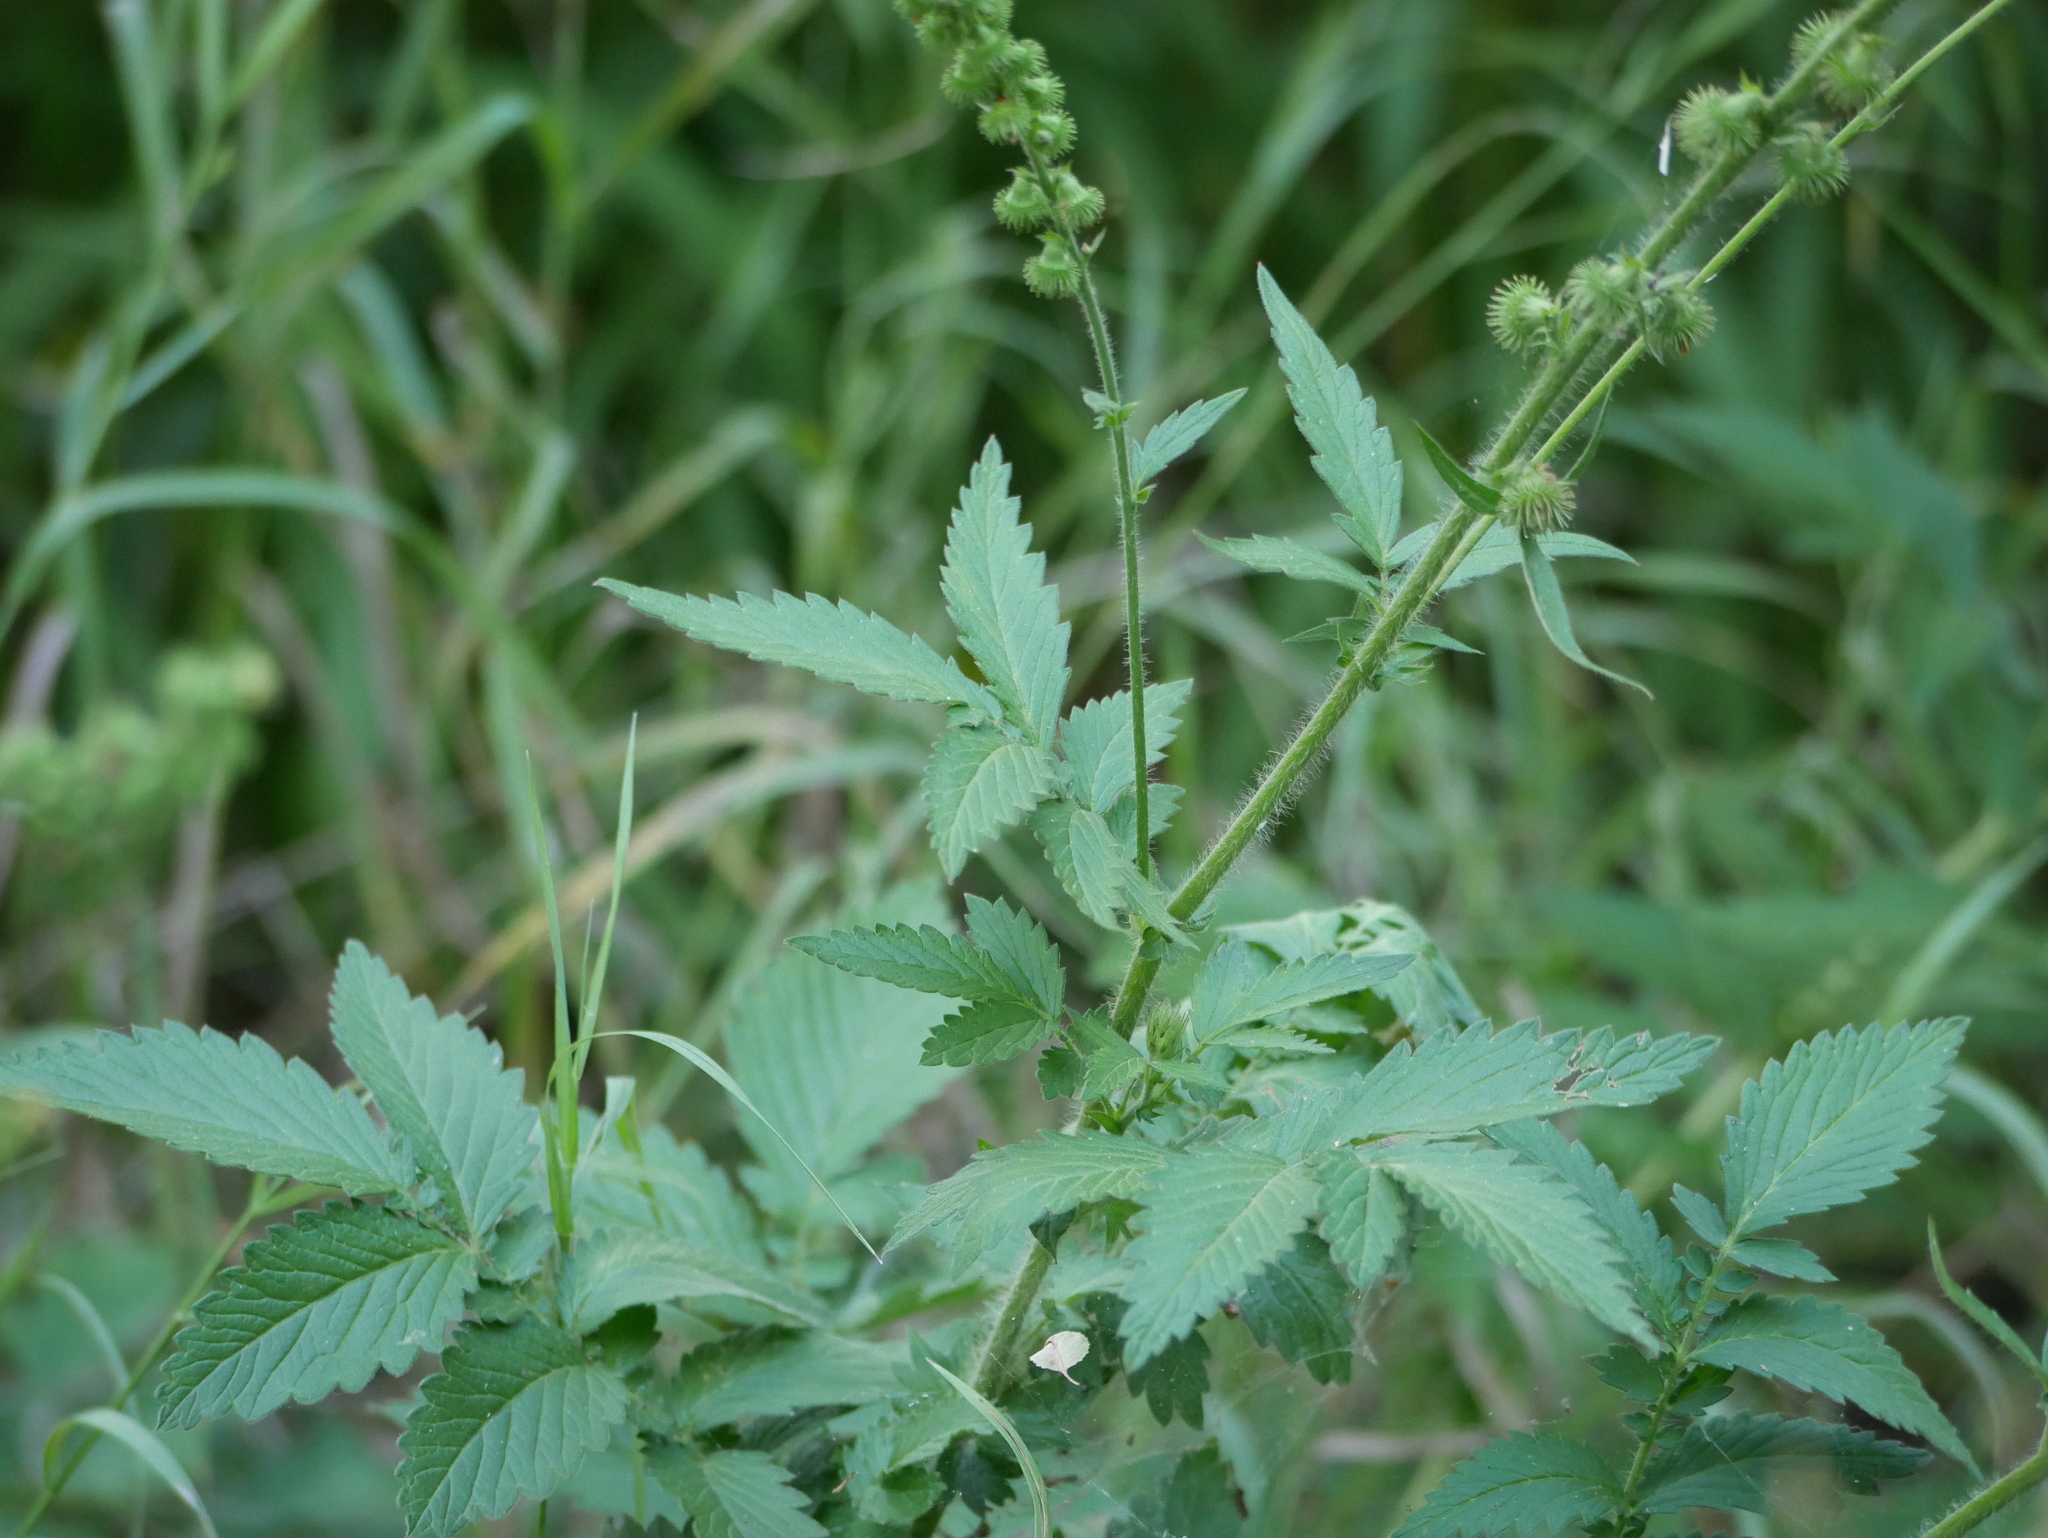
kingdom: Plantae
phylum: Tracheophyta
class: Magnoliopsida
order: Rosales
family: Rosaceae
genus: Agrimonia
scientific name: Agrimonia eupatoria
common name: Agrimony
